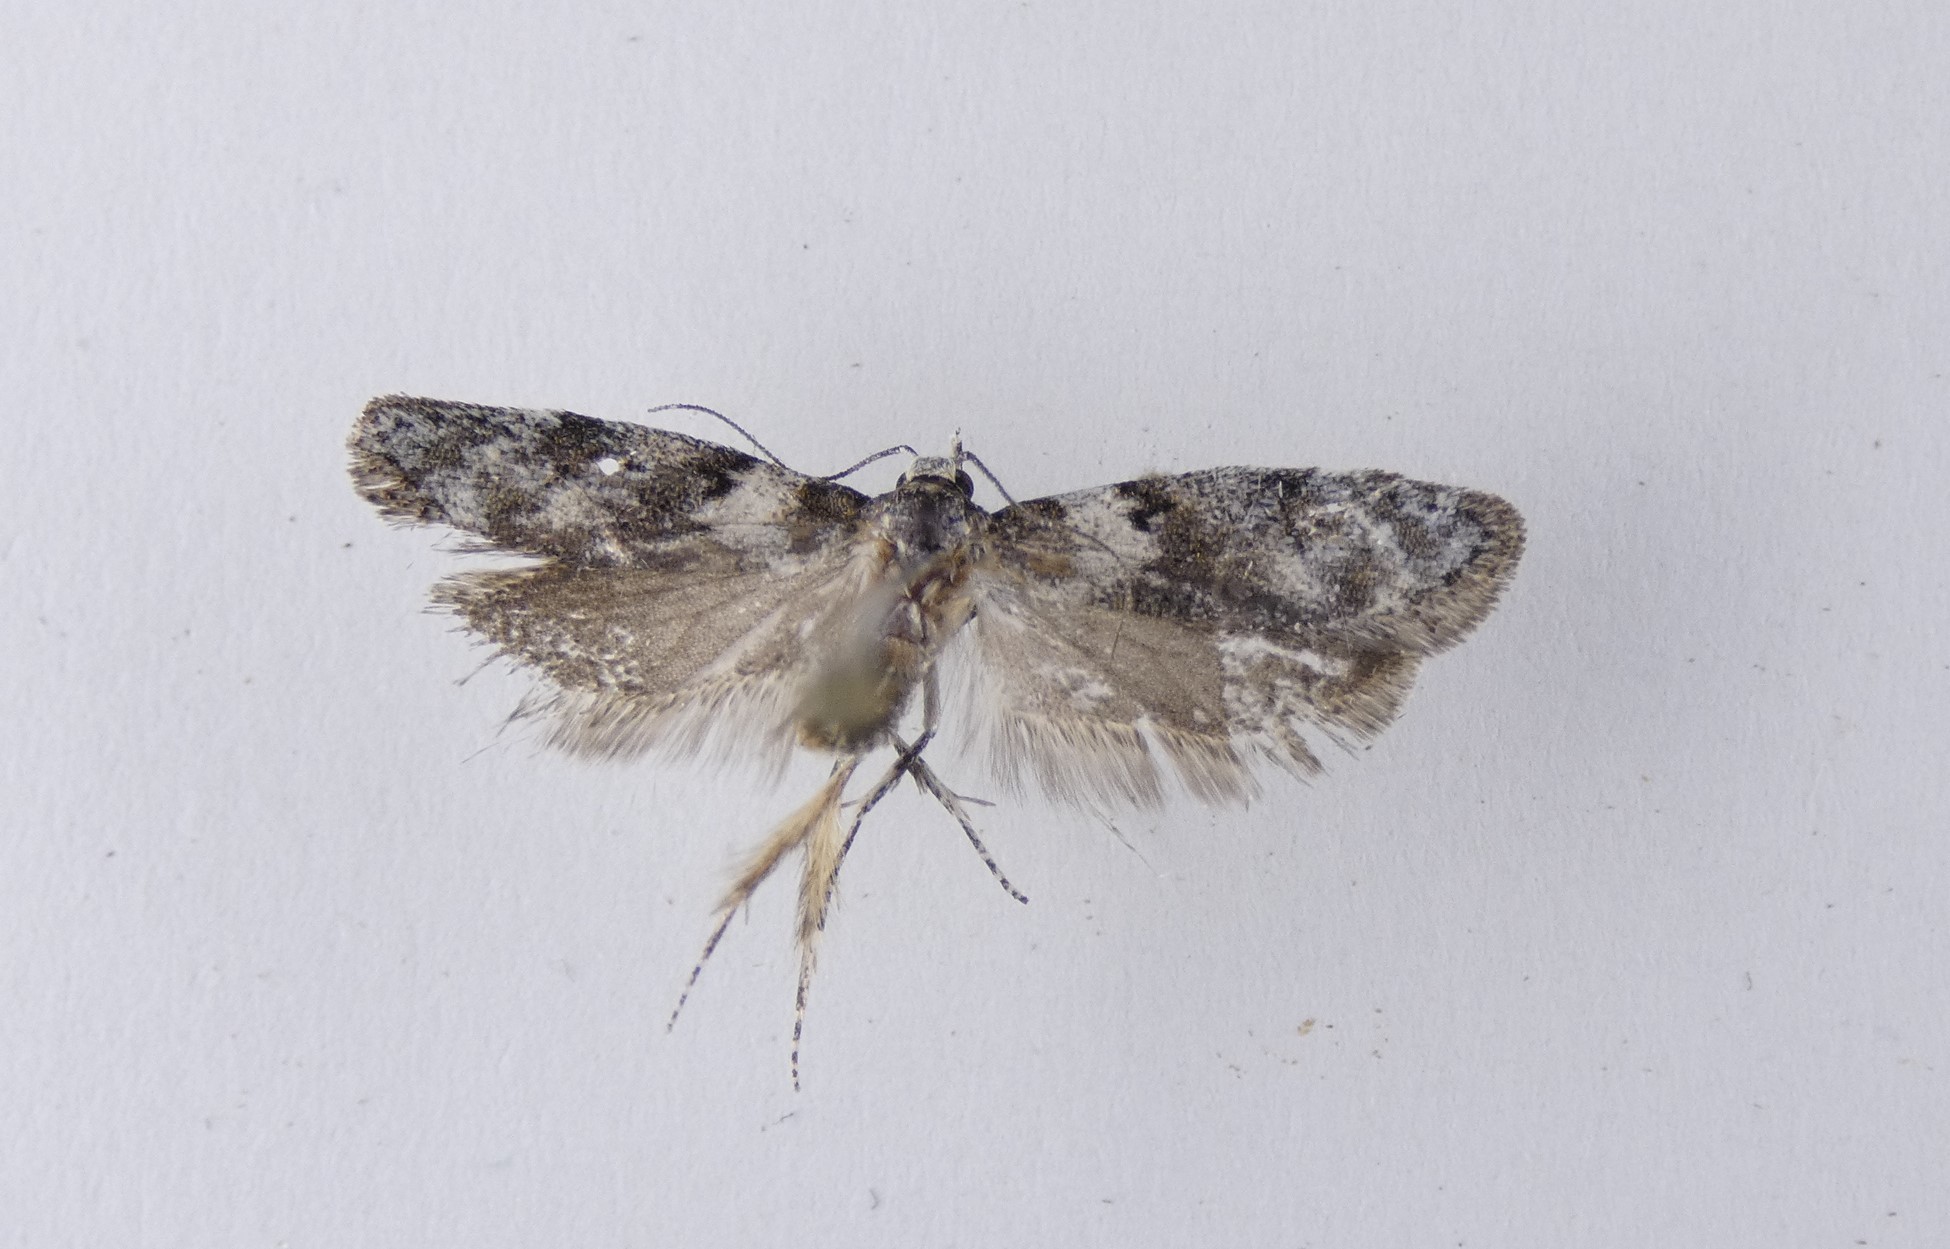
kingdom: Animalia
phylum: Arthropoda
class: Insecta
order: Lepidoptera
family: Oecophoridae
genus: Izatha
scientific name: Izatha convulsella
